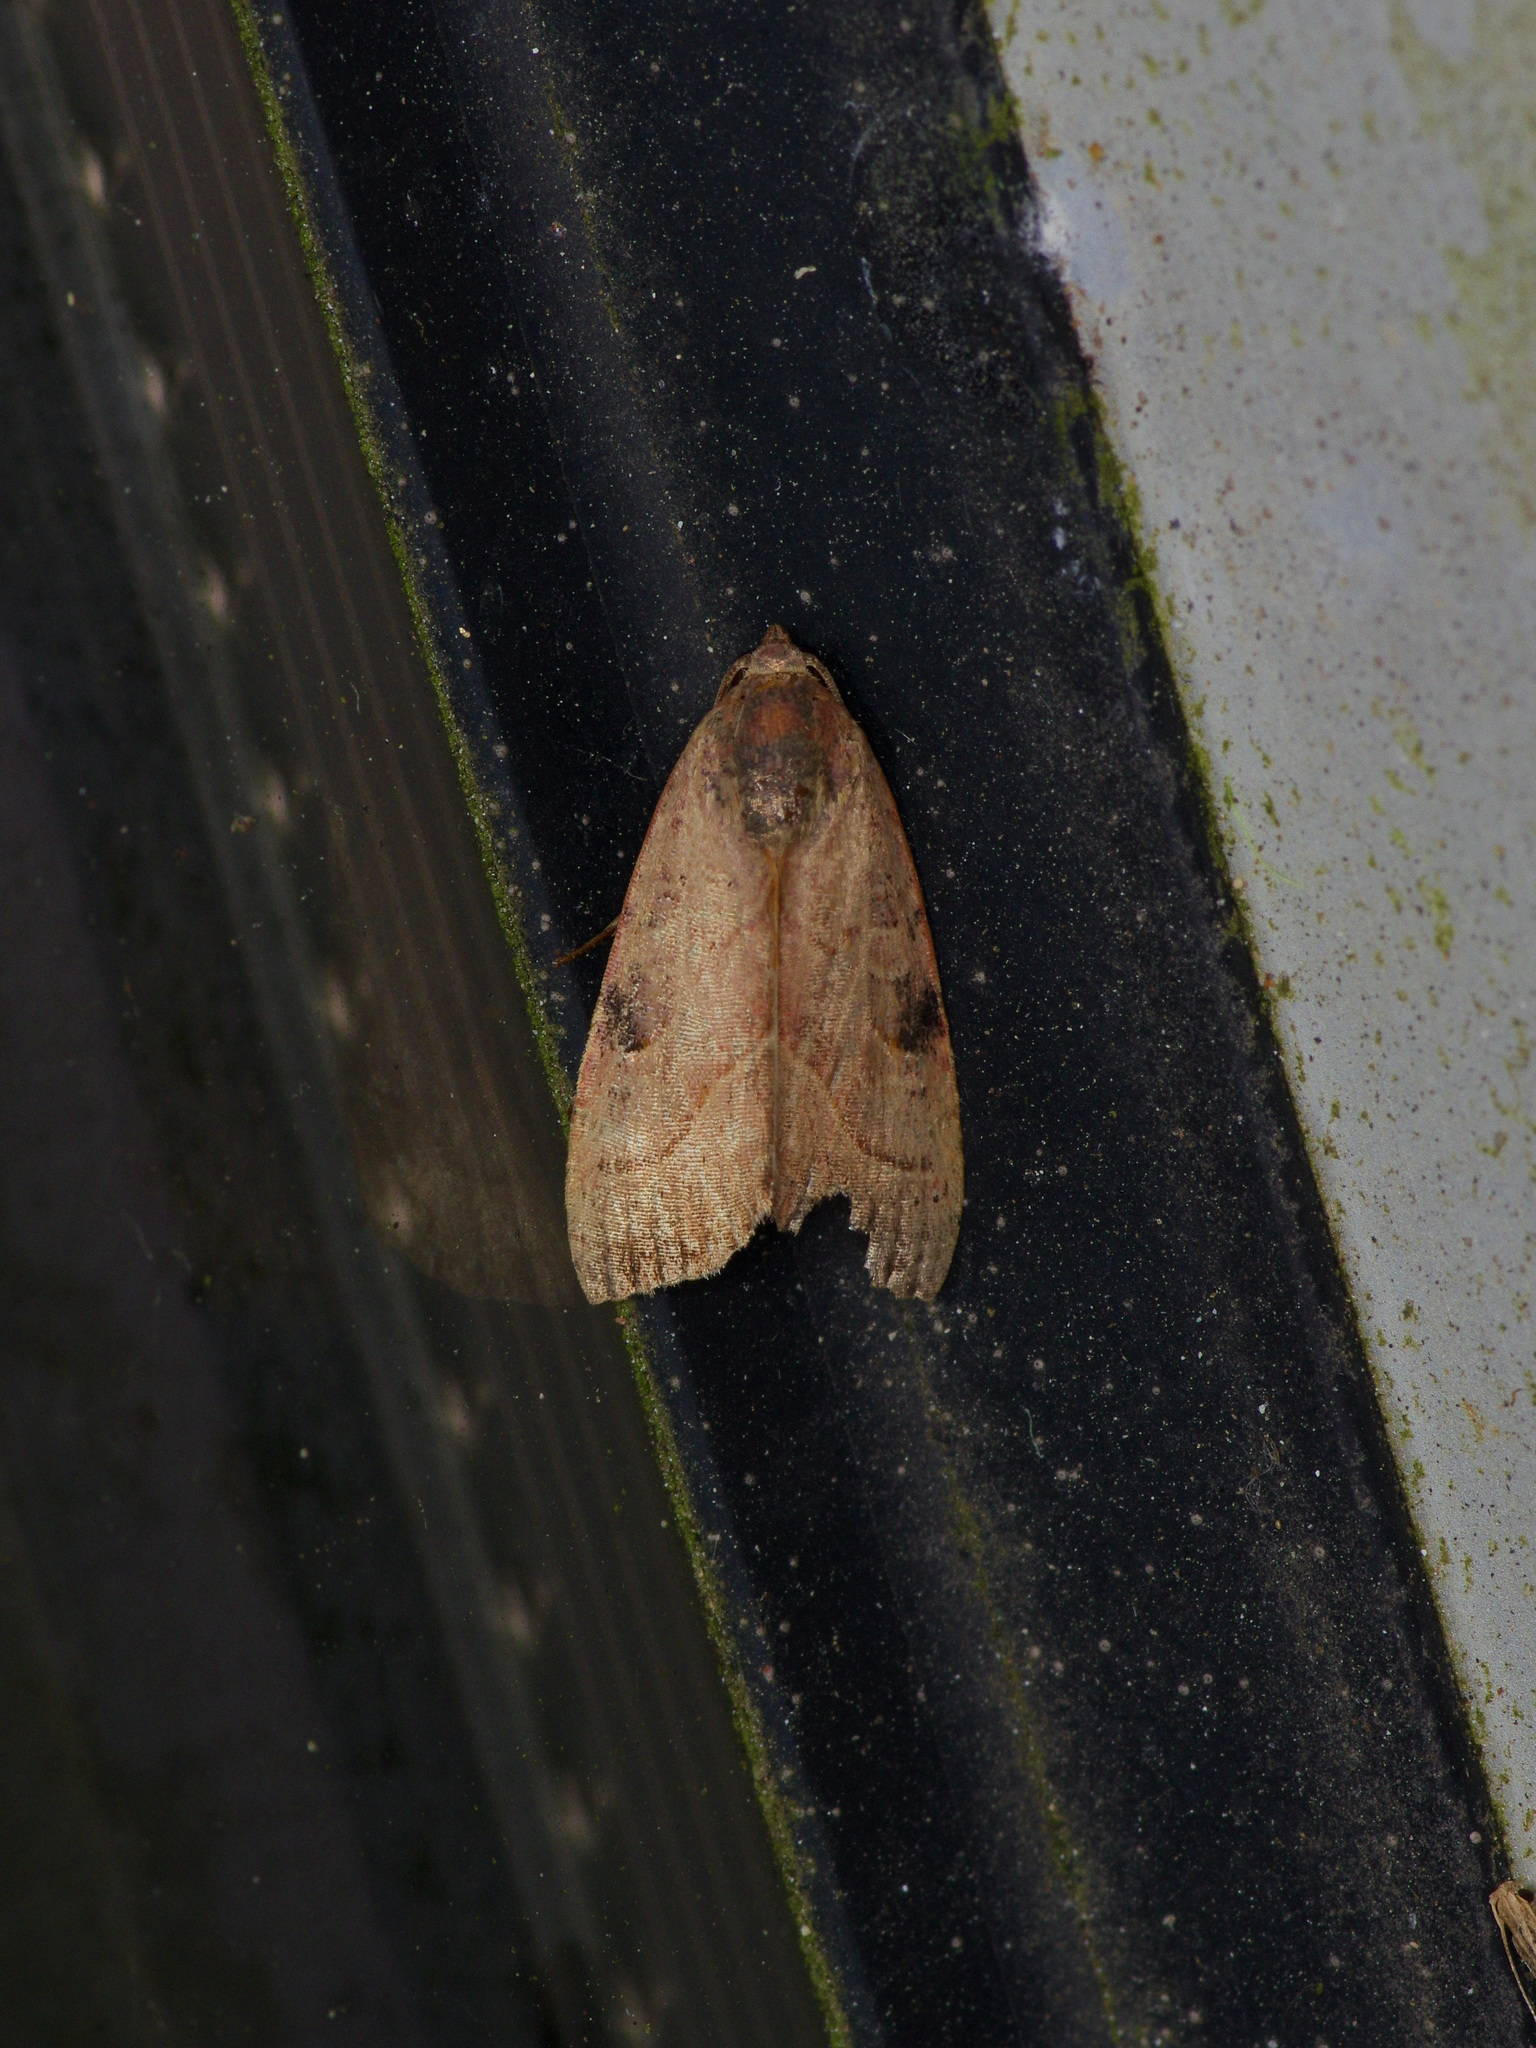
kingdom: Animalia
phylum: Arthropoda
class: Insecta
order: Lepidoptera
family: Noctuidae
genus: Galgula
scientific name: Galgula partita
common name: Wedgeling
